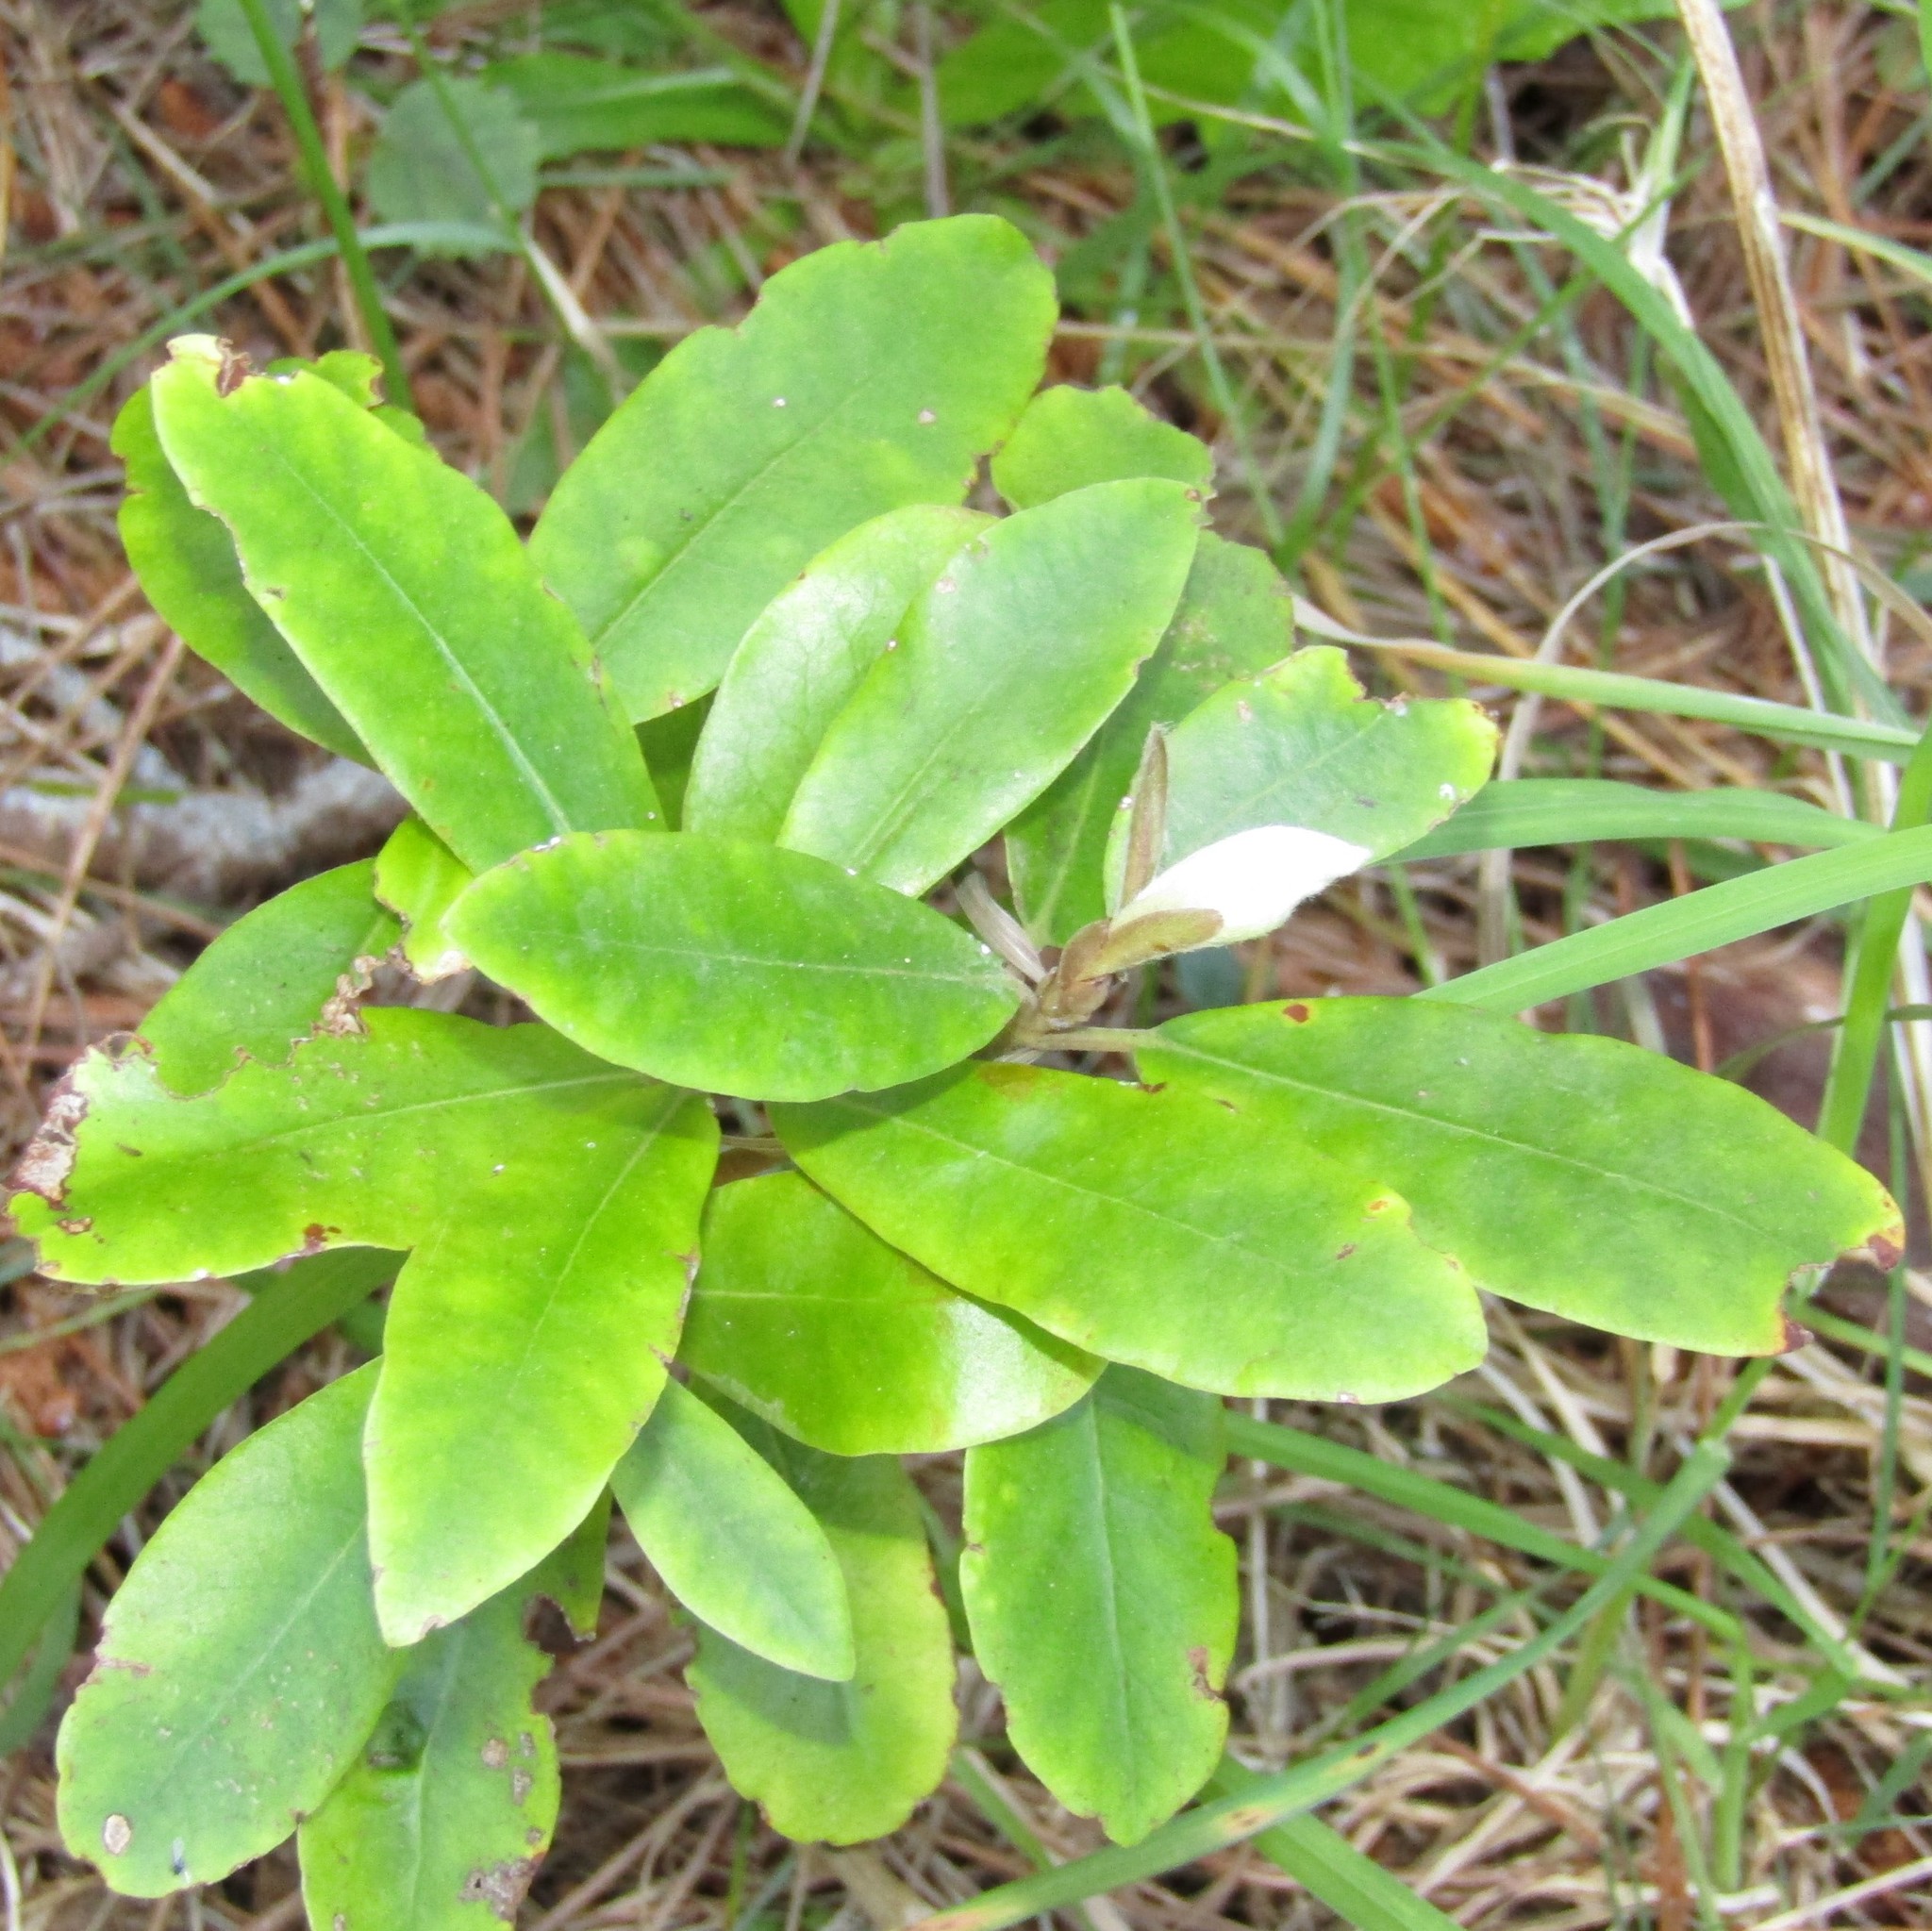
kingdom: Plantae
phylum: Tracheophyta
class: Magnoliopsida
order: Apiales
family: Pittosporaceae
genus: Pittosporum
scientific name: Pittosporum ralphii
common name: Ralph's desertwillow
